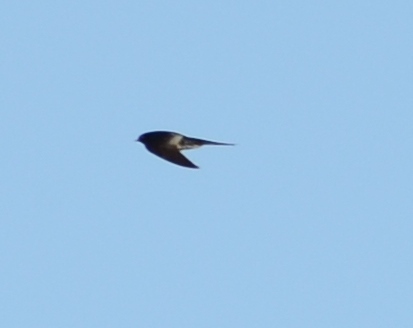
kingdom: Animalia
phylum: Chordata
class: Aves
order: Passeriformes
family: Hirundinidae
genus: Hirundo
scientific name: Hirundo rustica
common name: Barn swallow
